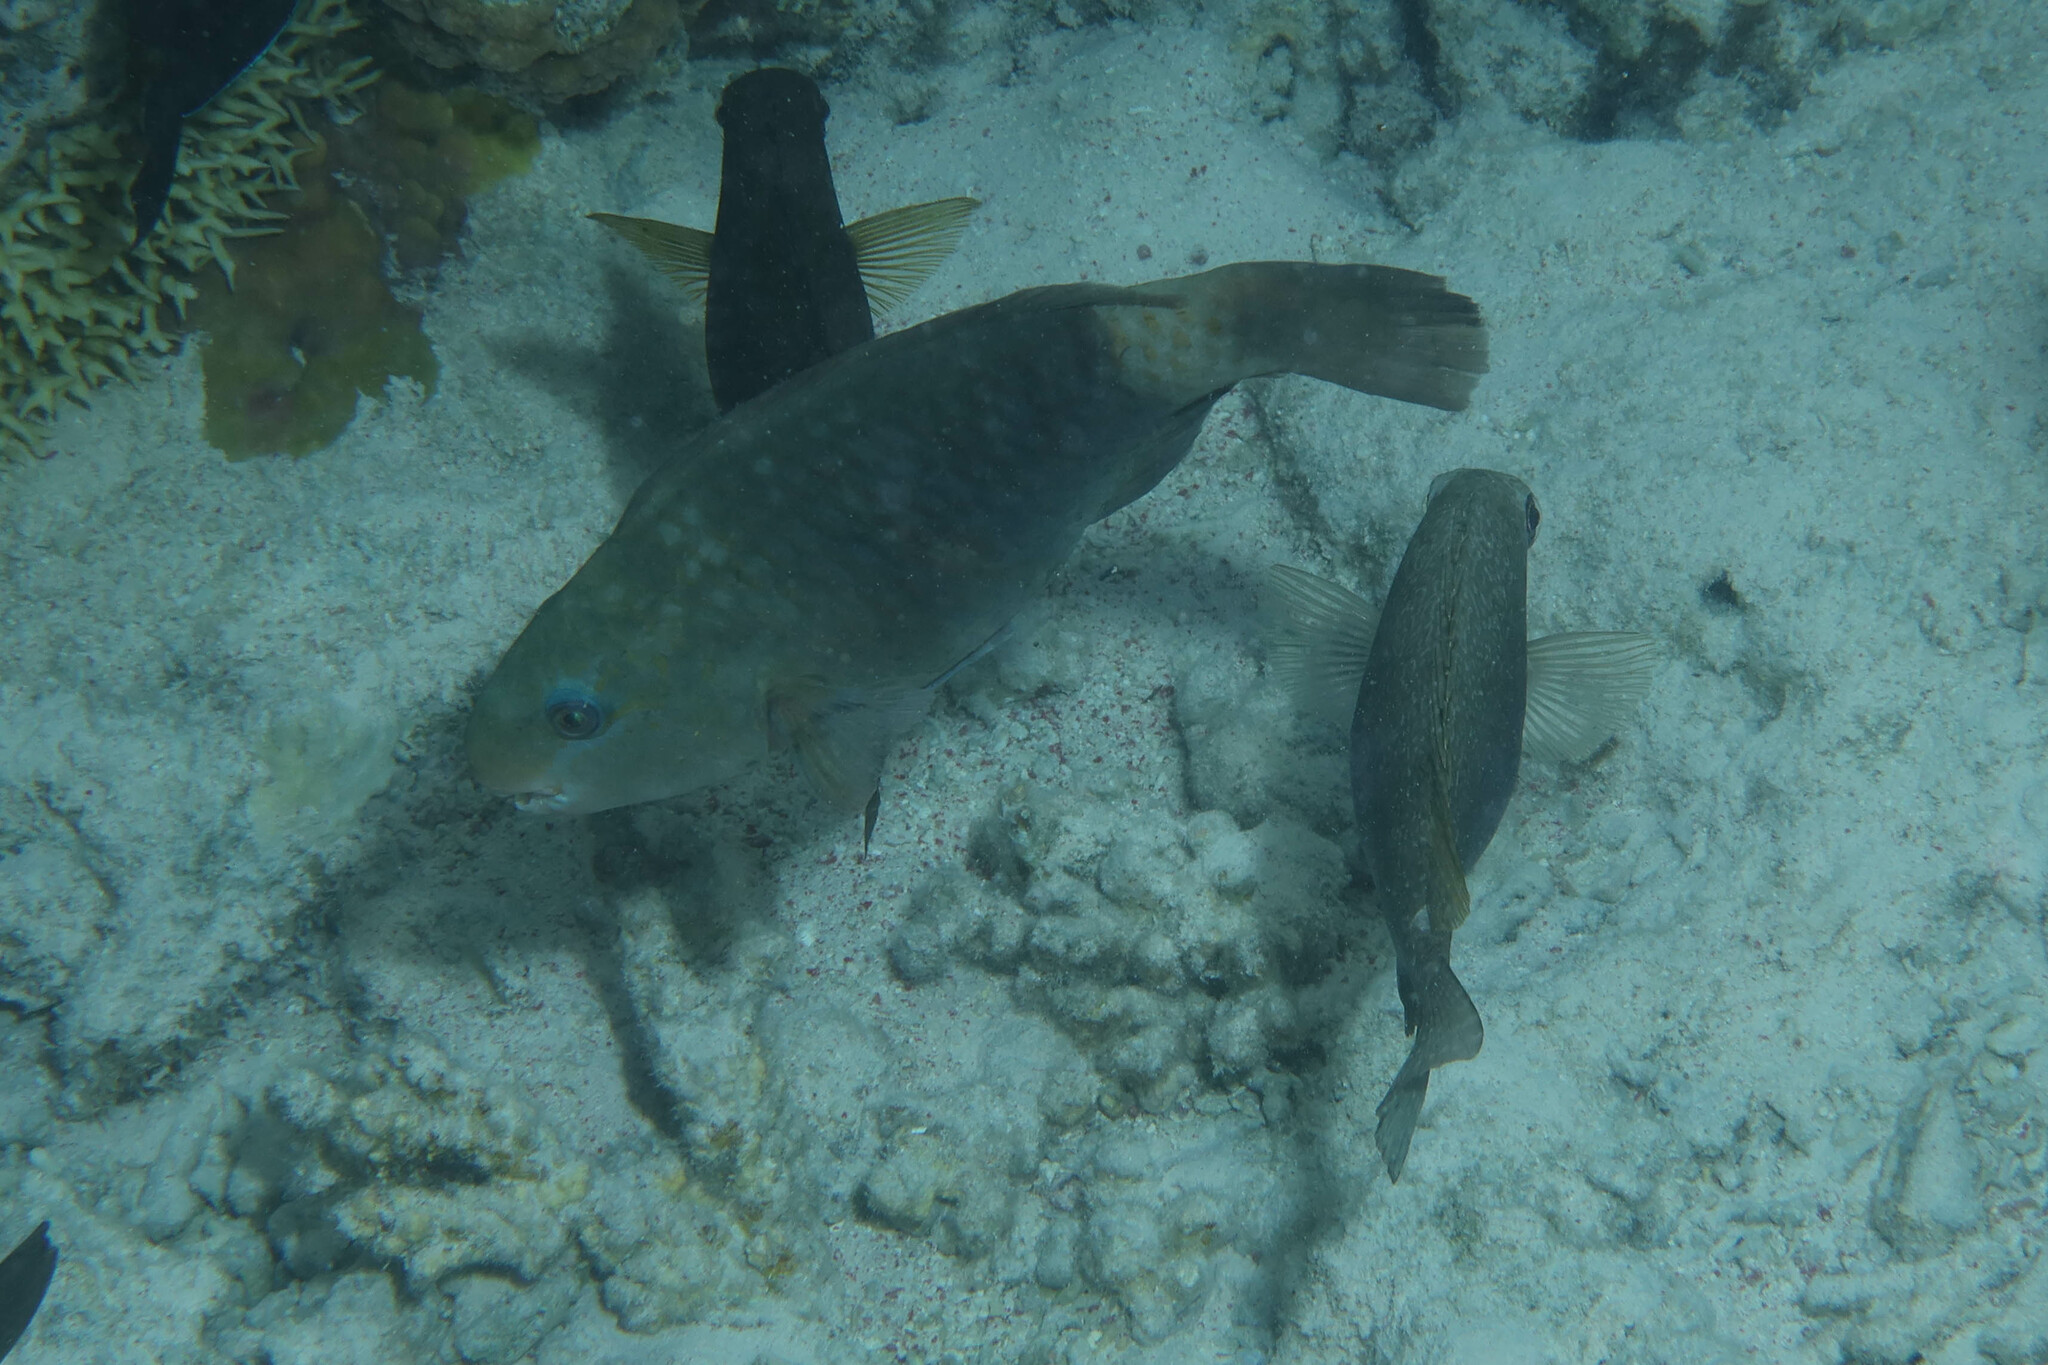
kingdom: Animalia
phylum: Chordata
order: Perciformes
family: Scaridae
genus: Chlorurus
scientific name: Chlorurus sordidus
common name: Bullethead parrotfish
